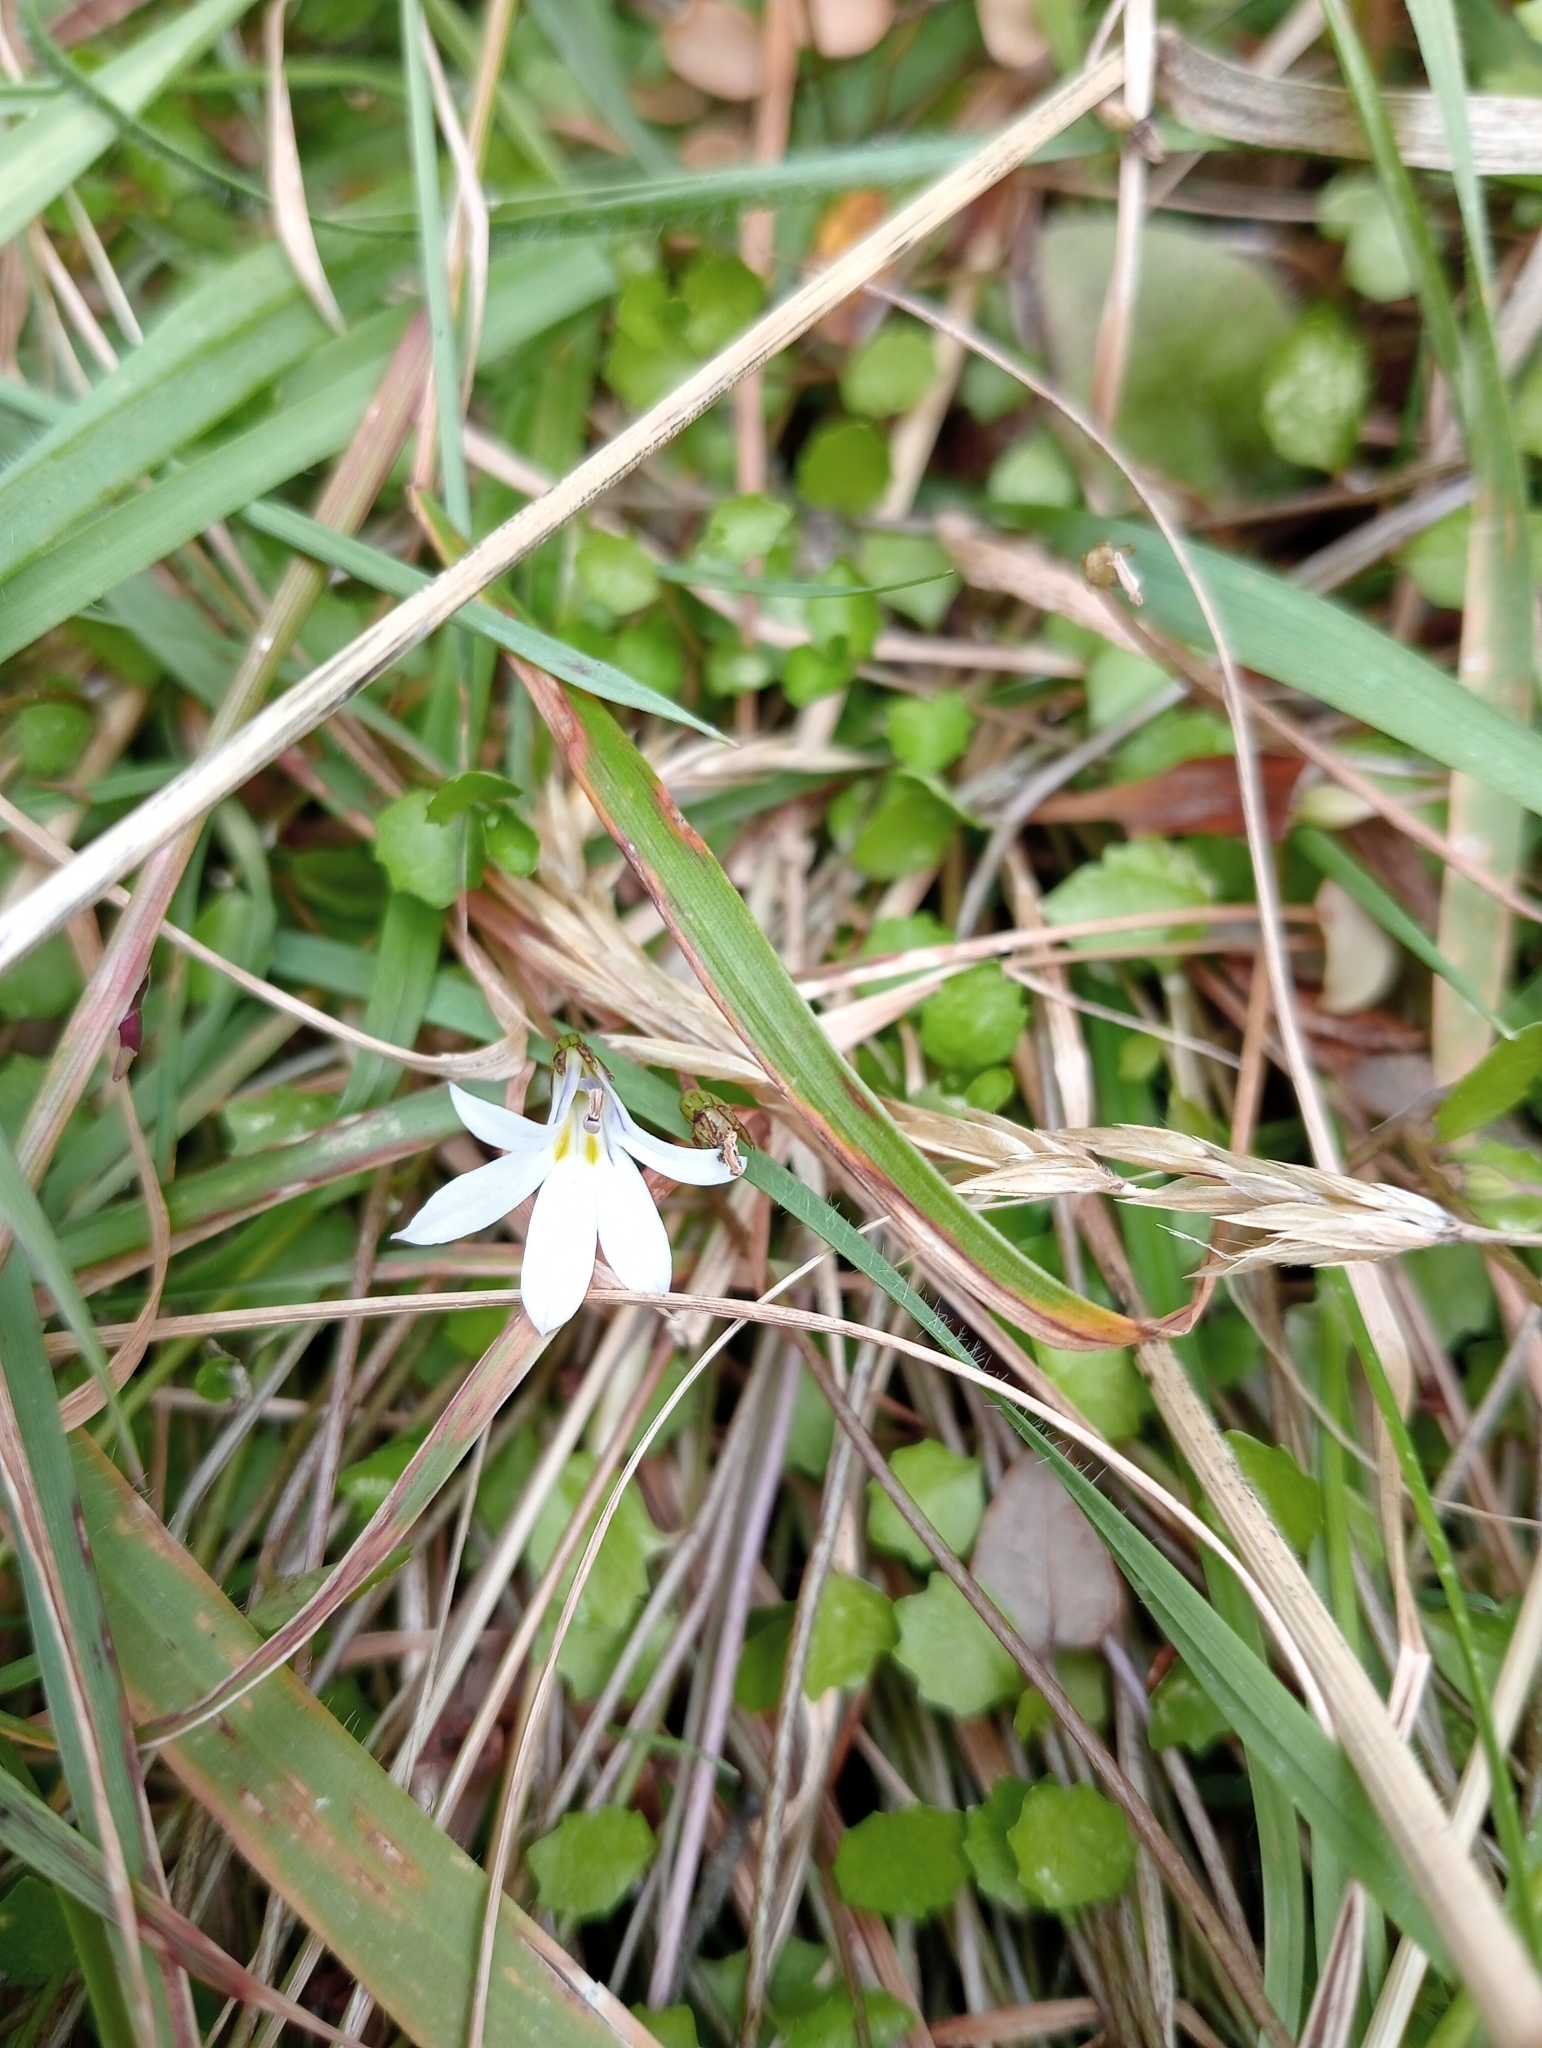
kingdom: Plantae
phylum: Tracheophyta
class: Magnoliopsida
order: Asterales
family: Campanulaceae
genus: Lobelia
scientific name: Lobelia angulata
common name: Lawn lobelia
